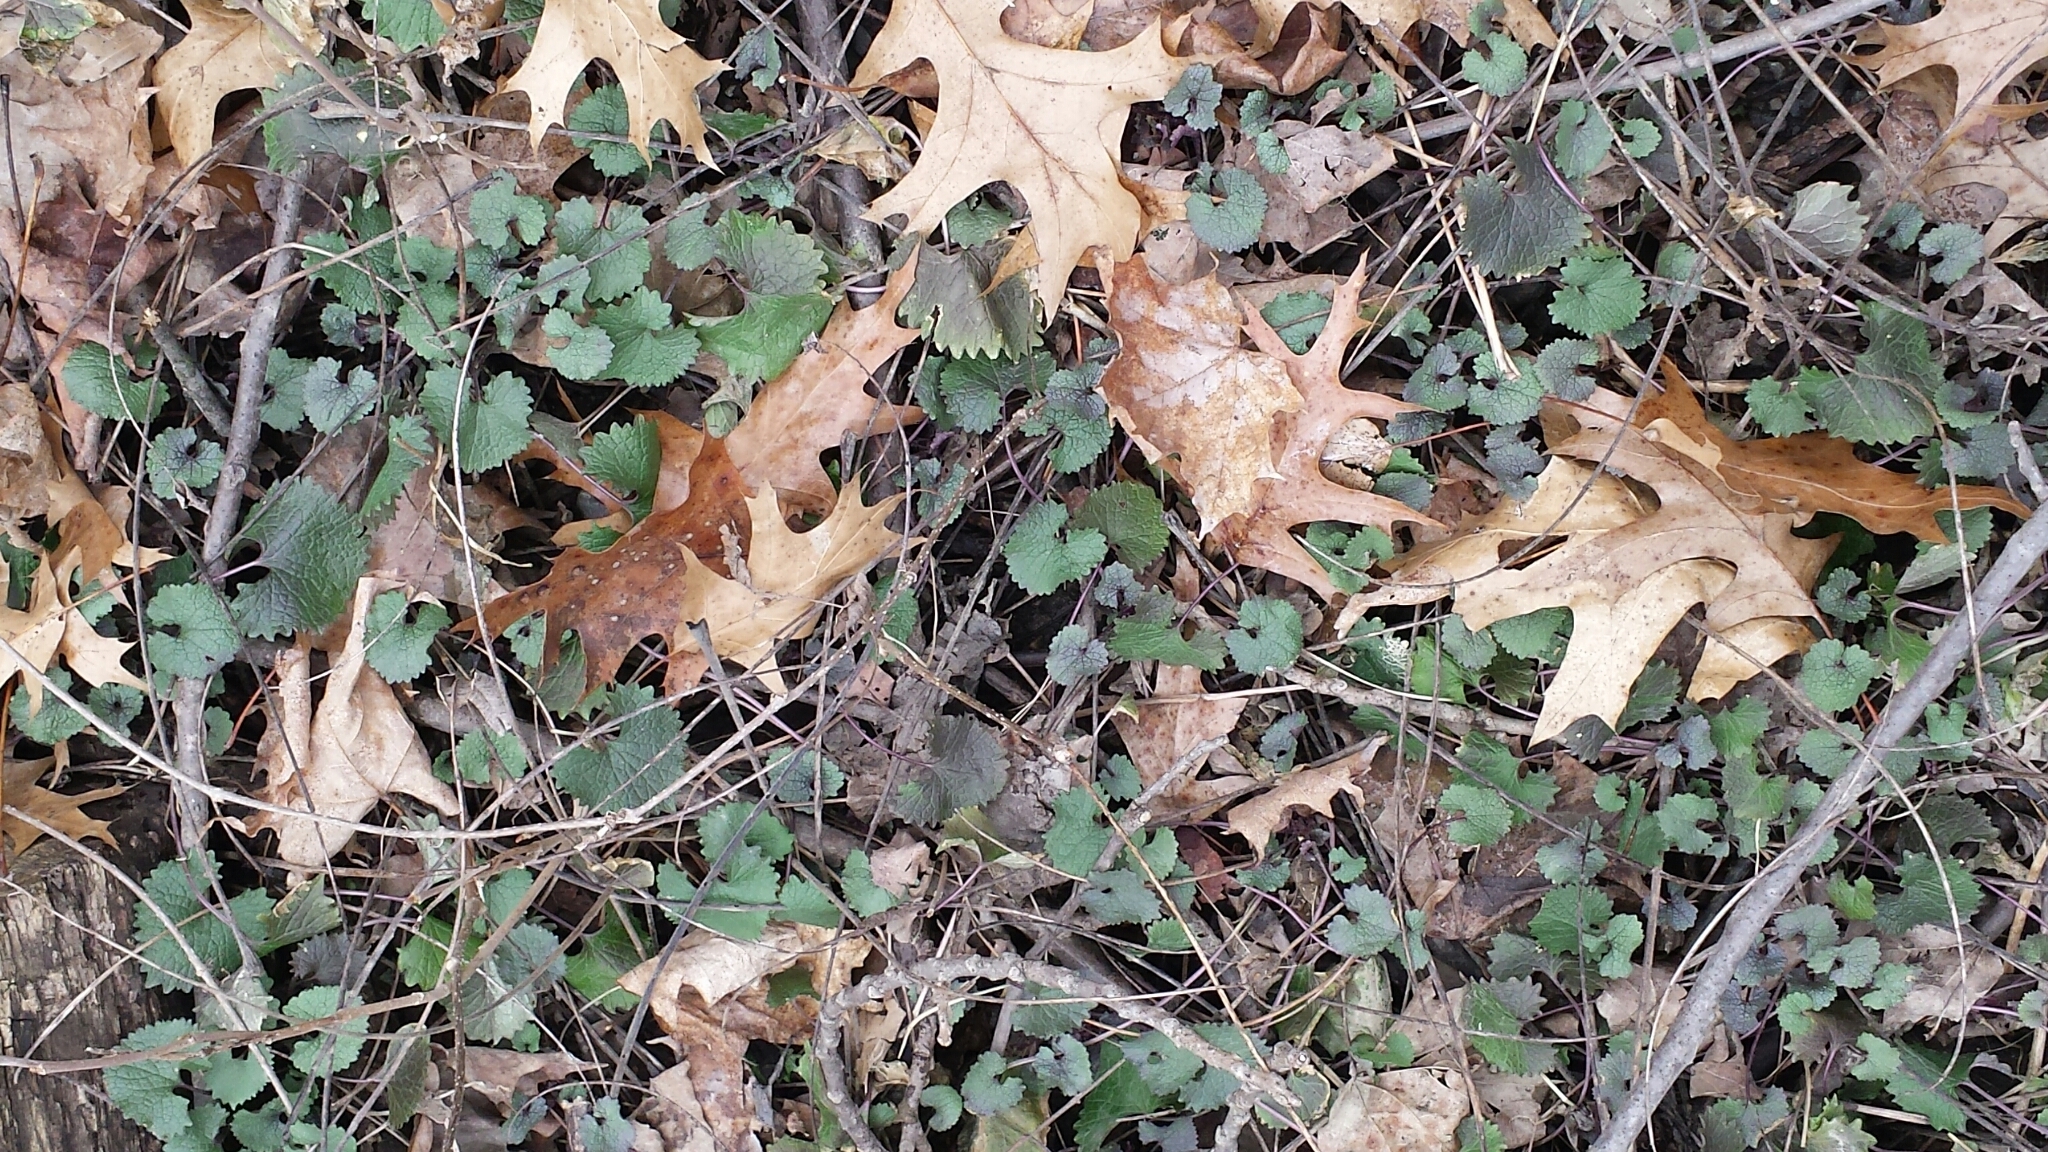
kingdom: Plantae
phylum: Tracheophyta
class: Magnoliopsida
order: Brassicales
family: Brassicaceae
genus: Alliaria
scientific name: Alliaria petiolata
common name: Garlic mustard
